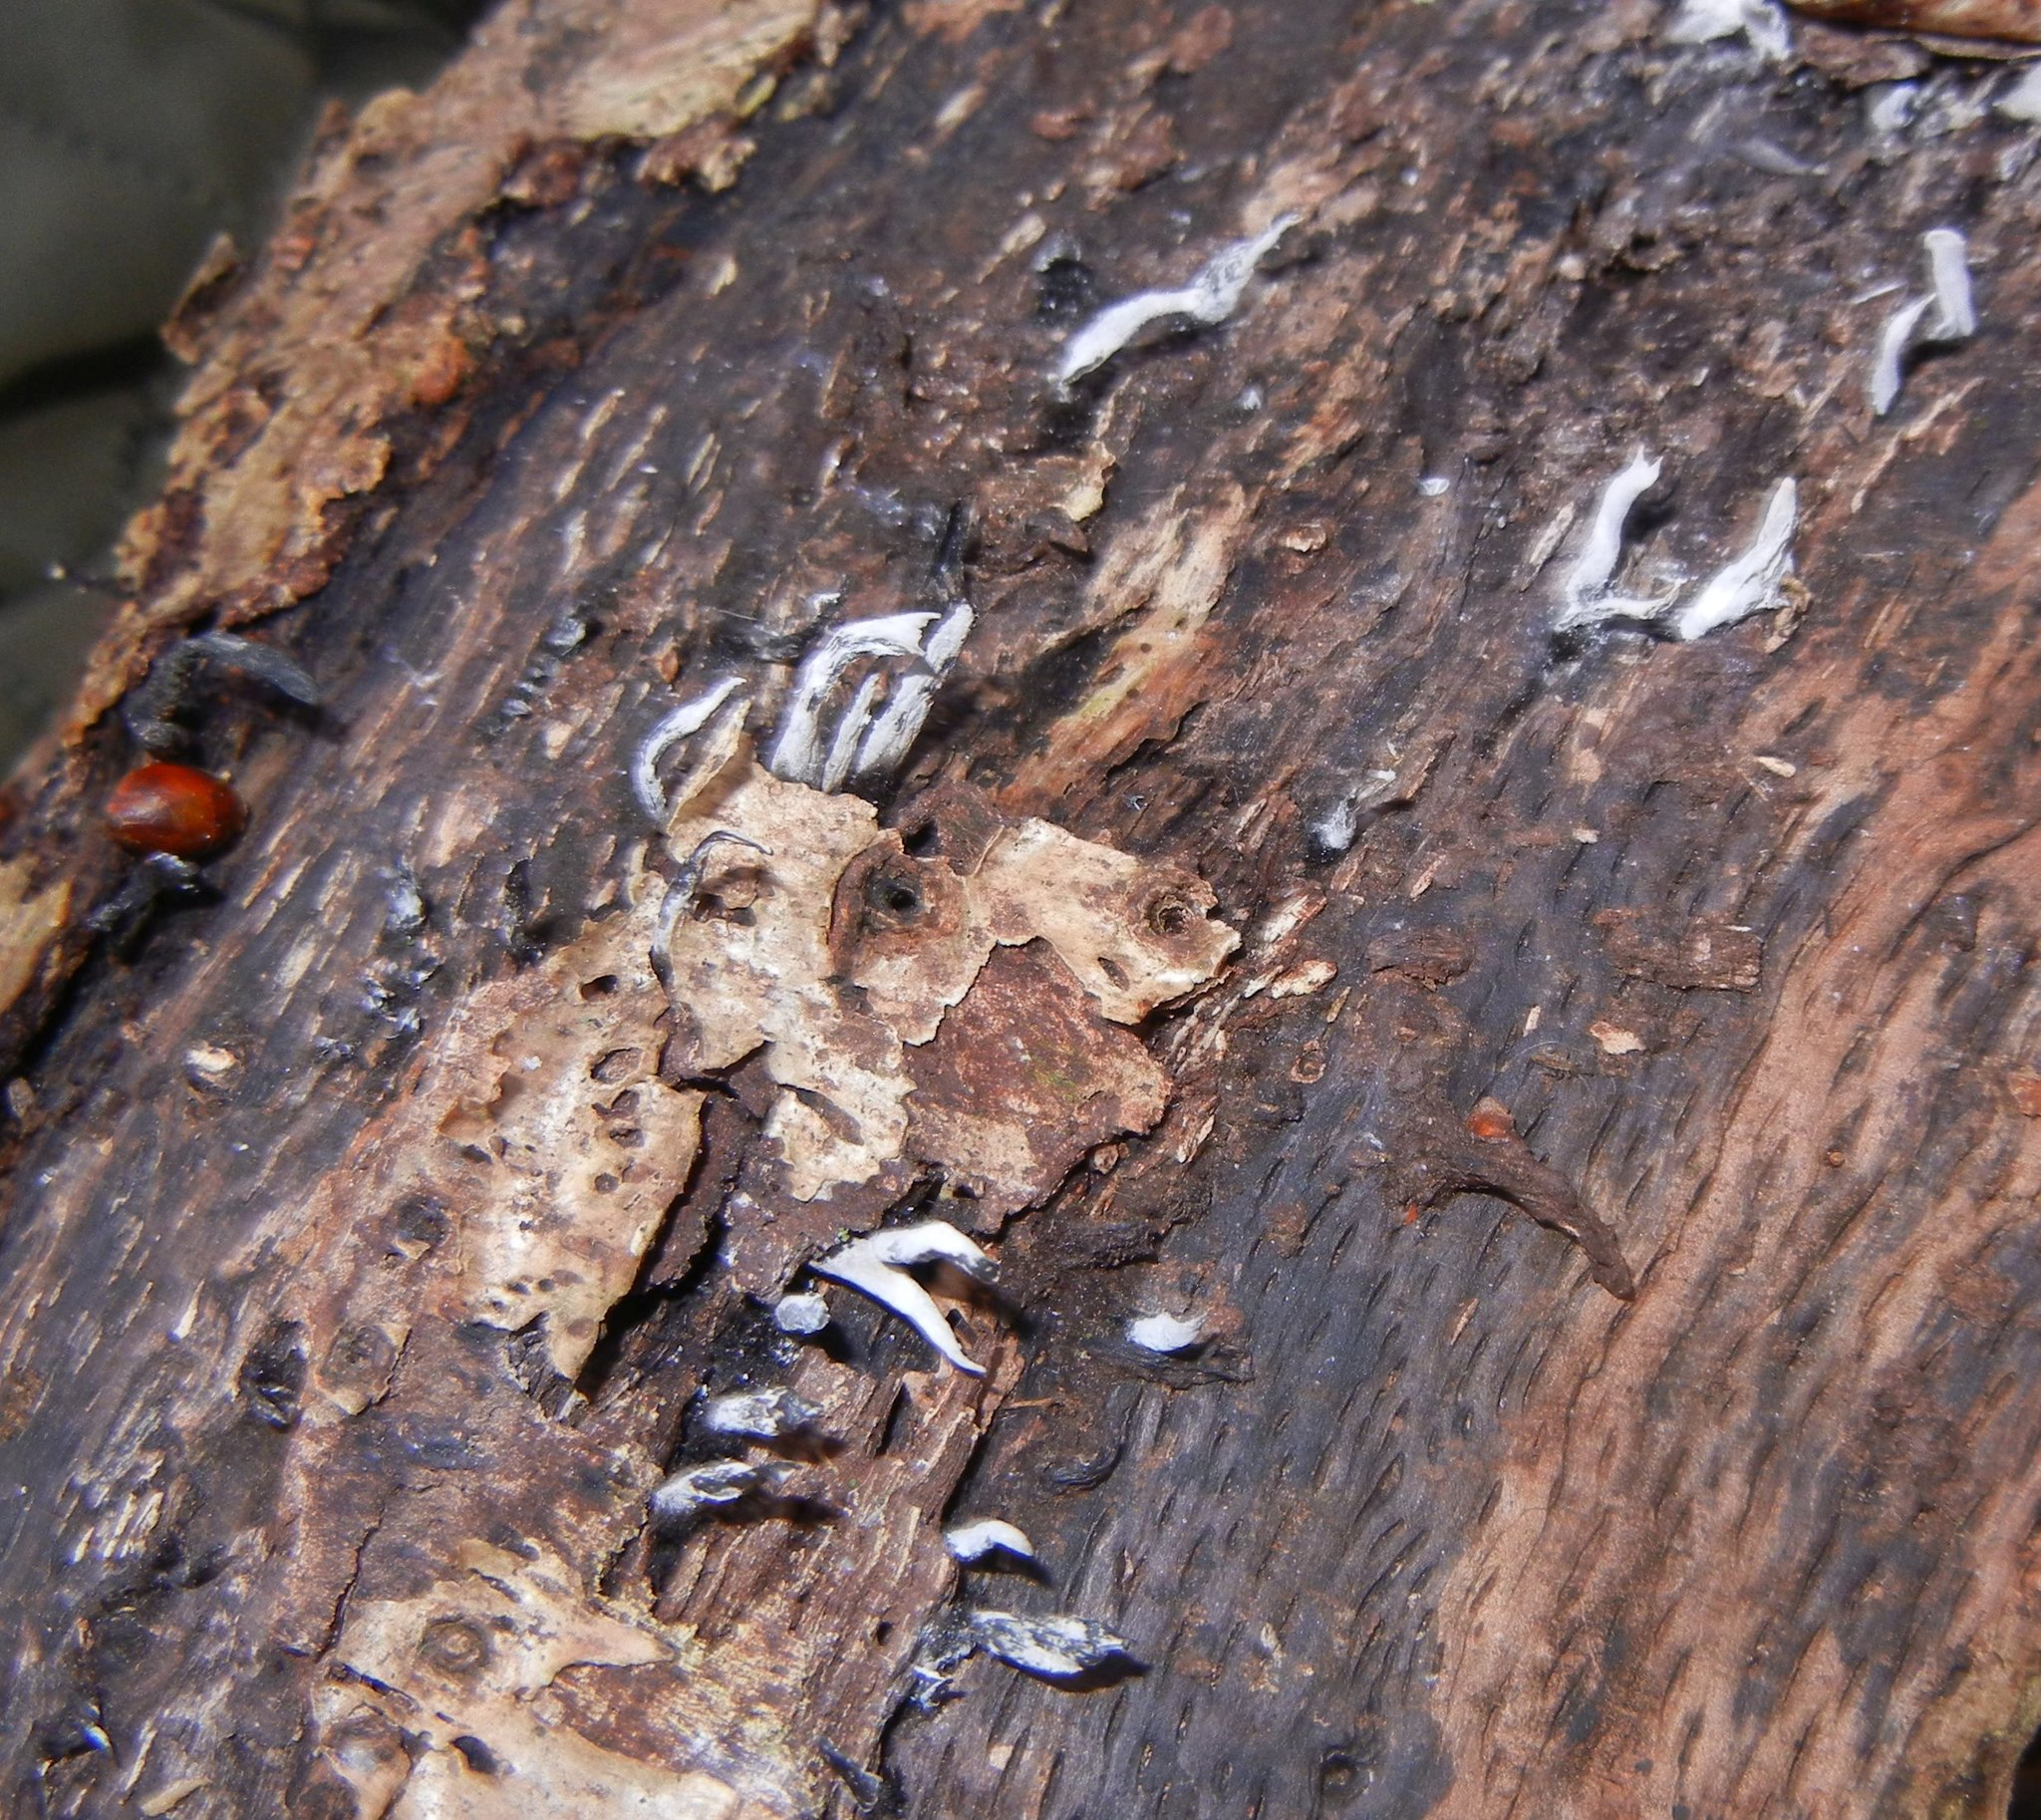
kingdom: Fungi
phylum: Ascomycota
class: Sordariomycetes
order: Xylariales
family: Xylariaceae
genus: Xylaria
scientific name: Xylaria hypoxylon
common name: Candle-snuff fungus
